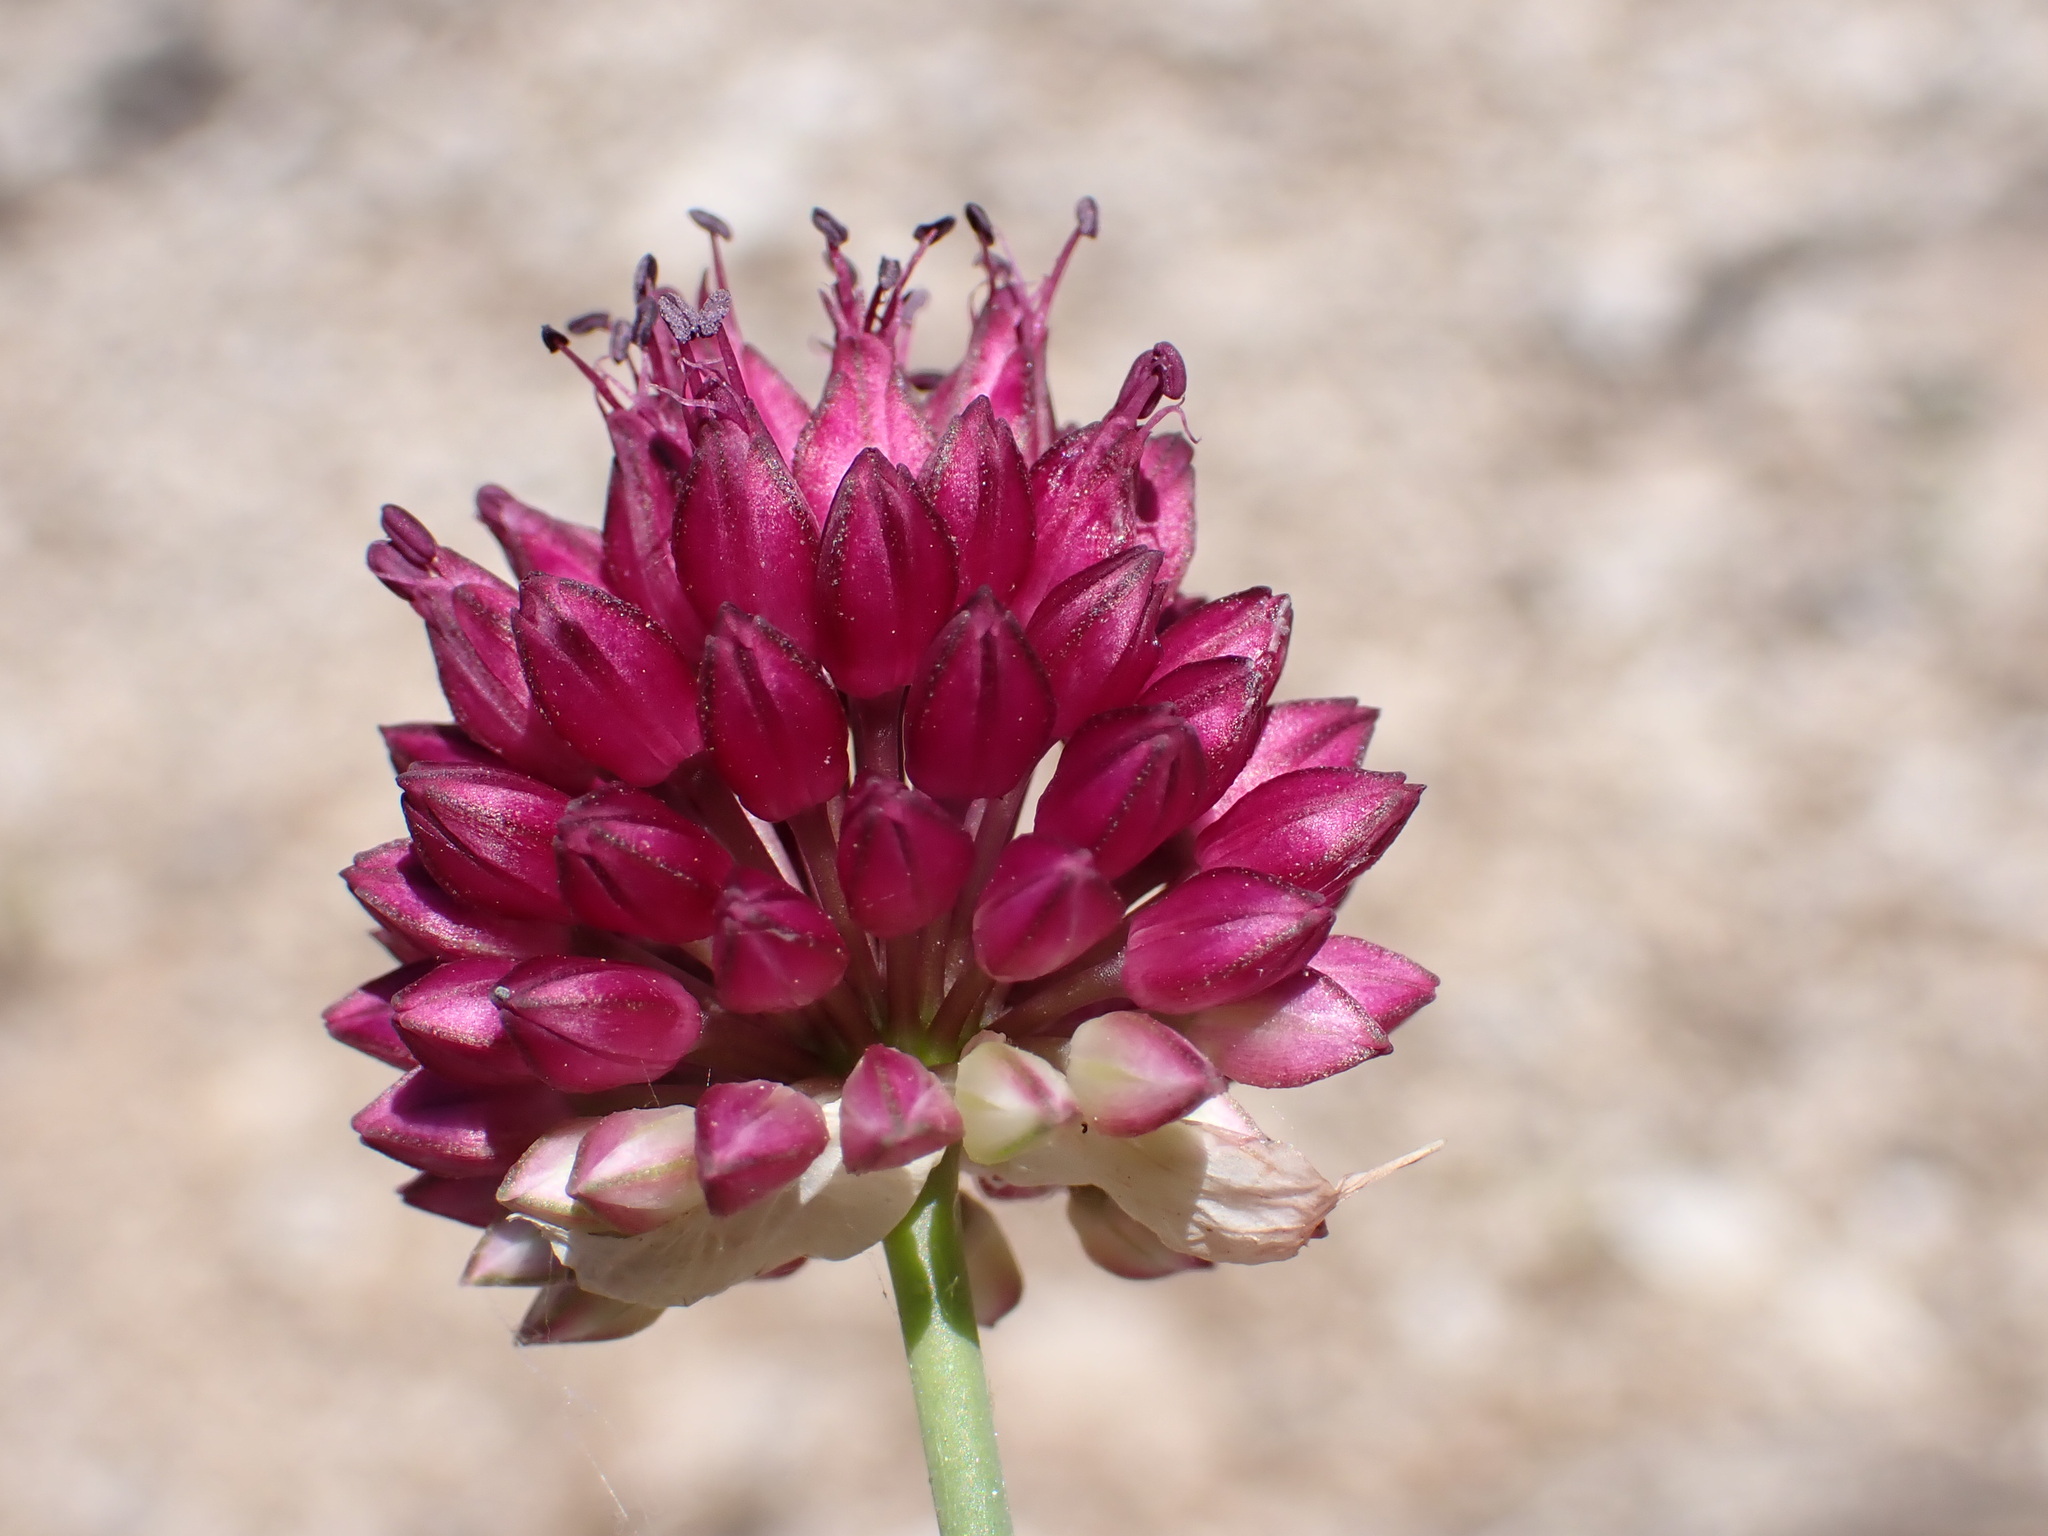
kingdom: Plantae
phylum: Tracheophyta
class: Liliopsida
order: Asparagales
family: Amaryllidaceae
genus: Allium
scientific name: Allium sphaerocephalon
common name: Round-headed leek
